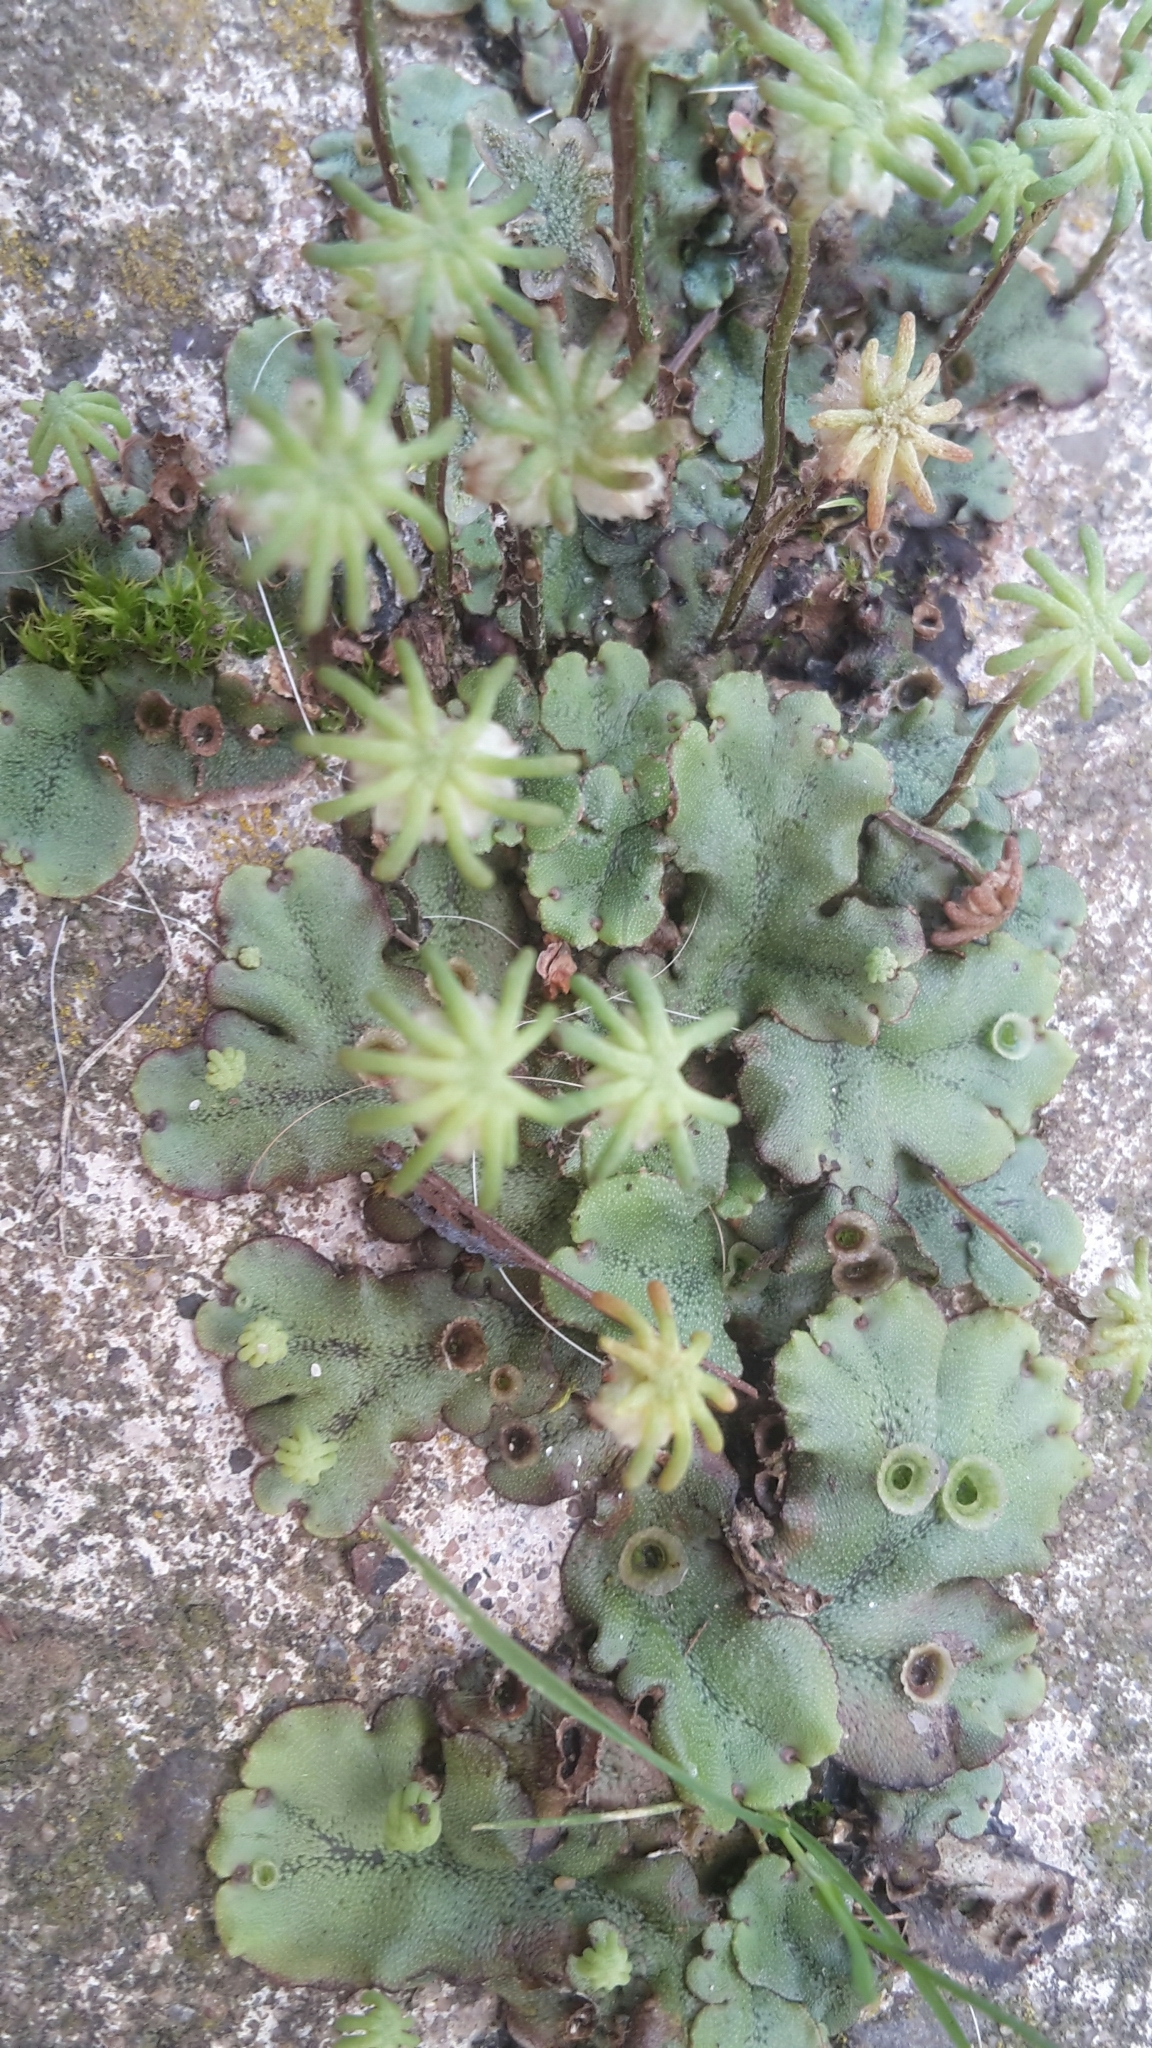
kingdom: Plantae
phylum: Marchantiophyta
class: Marchantiopsida
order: Marchantiales
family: Marchantiaceae
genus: Marchantia
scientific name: Marchantia polymorpha
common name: Common liverwort
